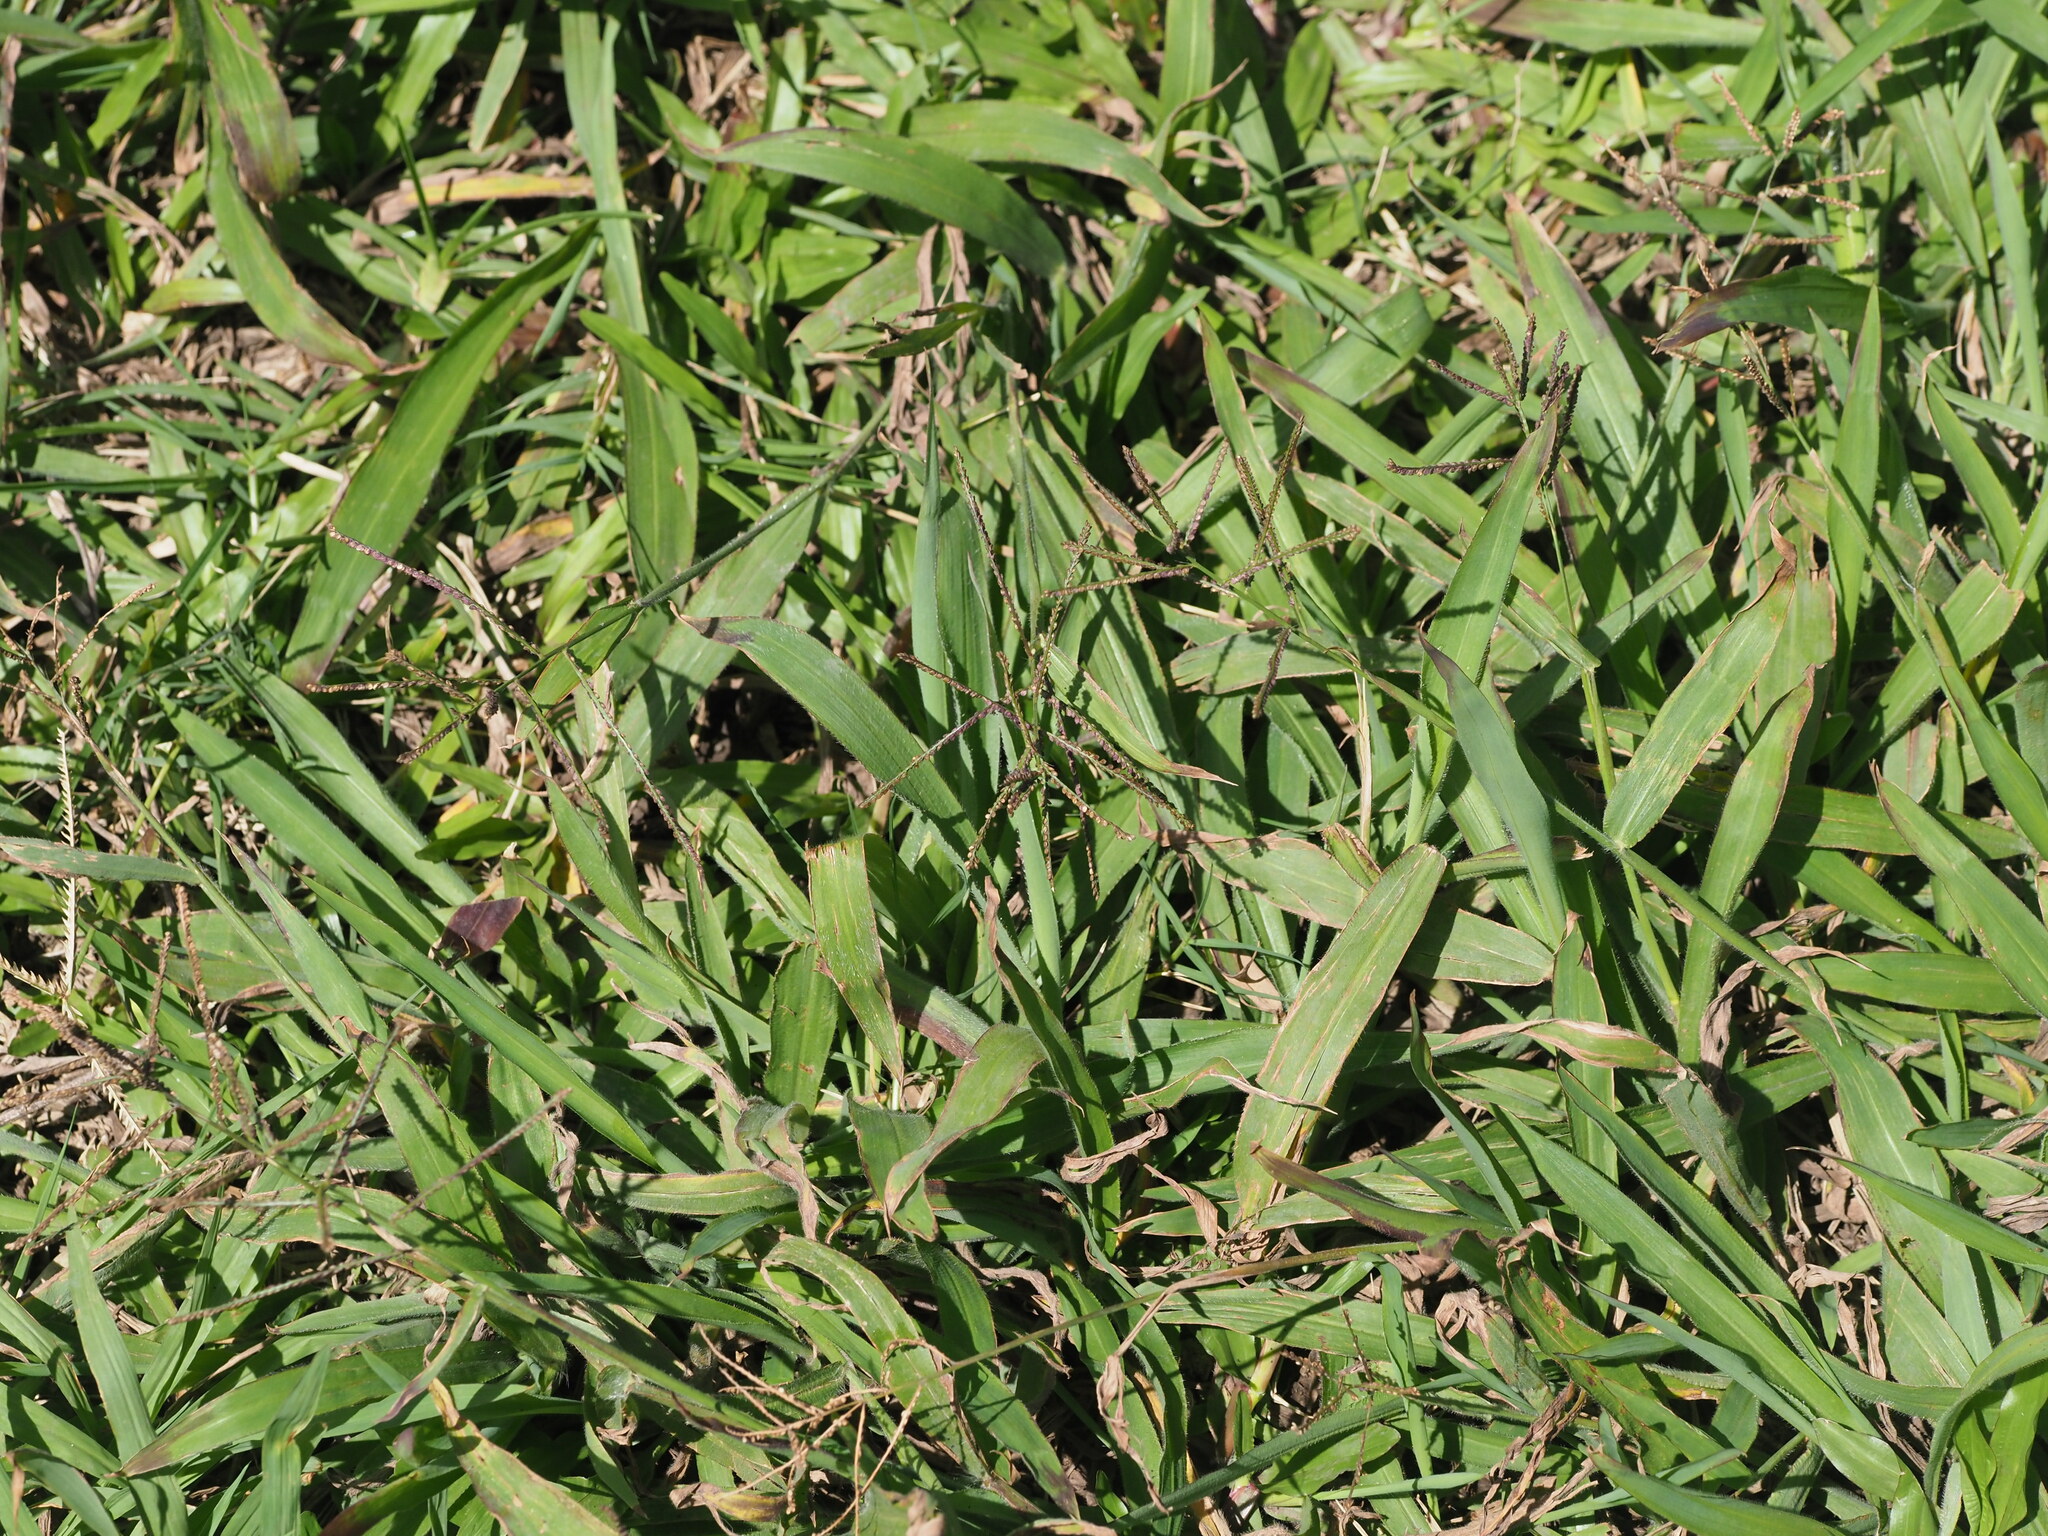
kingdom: Plantae
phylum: Tracheophyta
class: Liliopsida
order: Poales
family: Poaceae
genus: Paspalum
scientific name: Paspalum paniculatum
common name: Arrocillo
